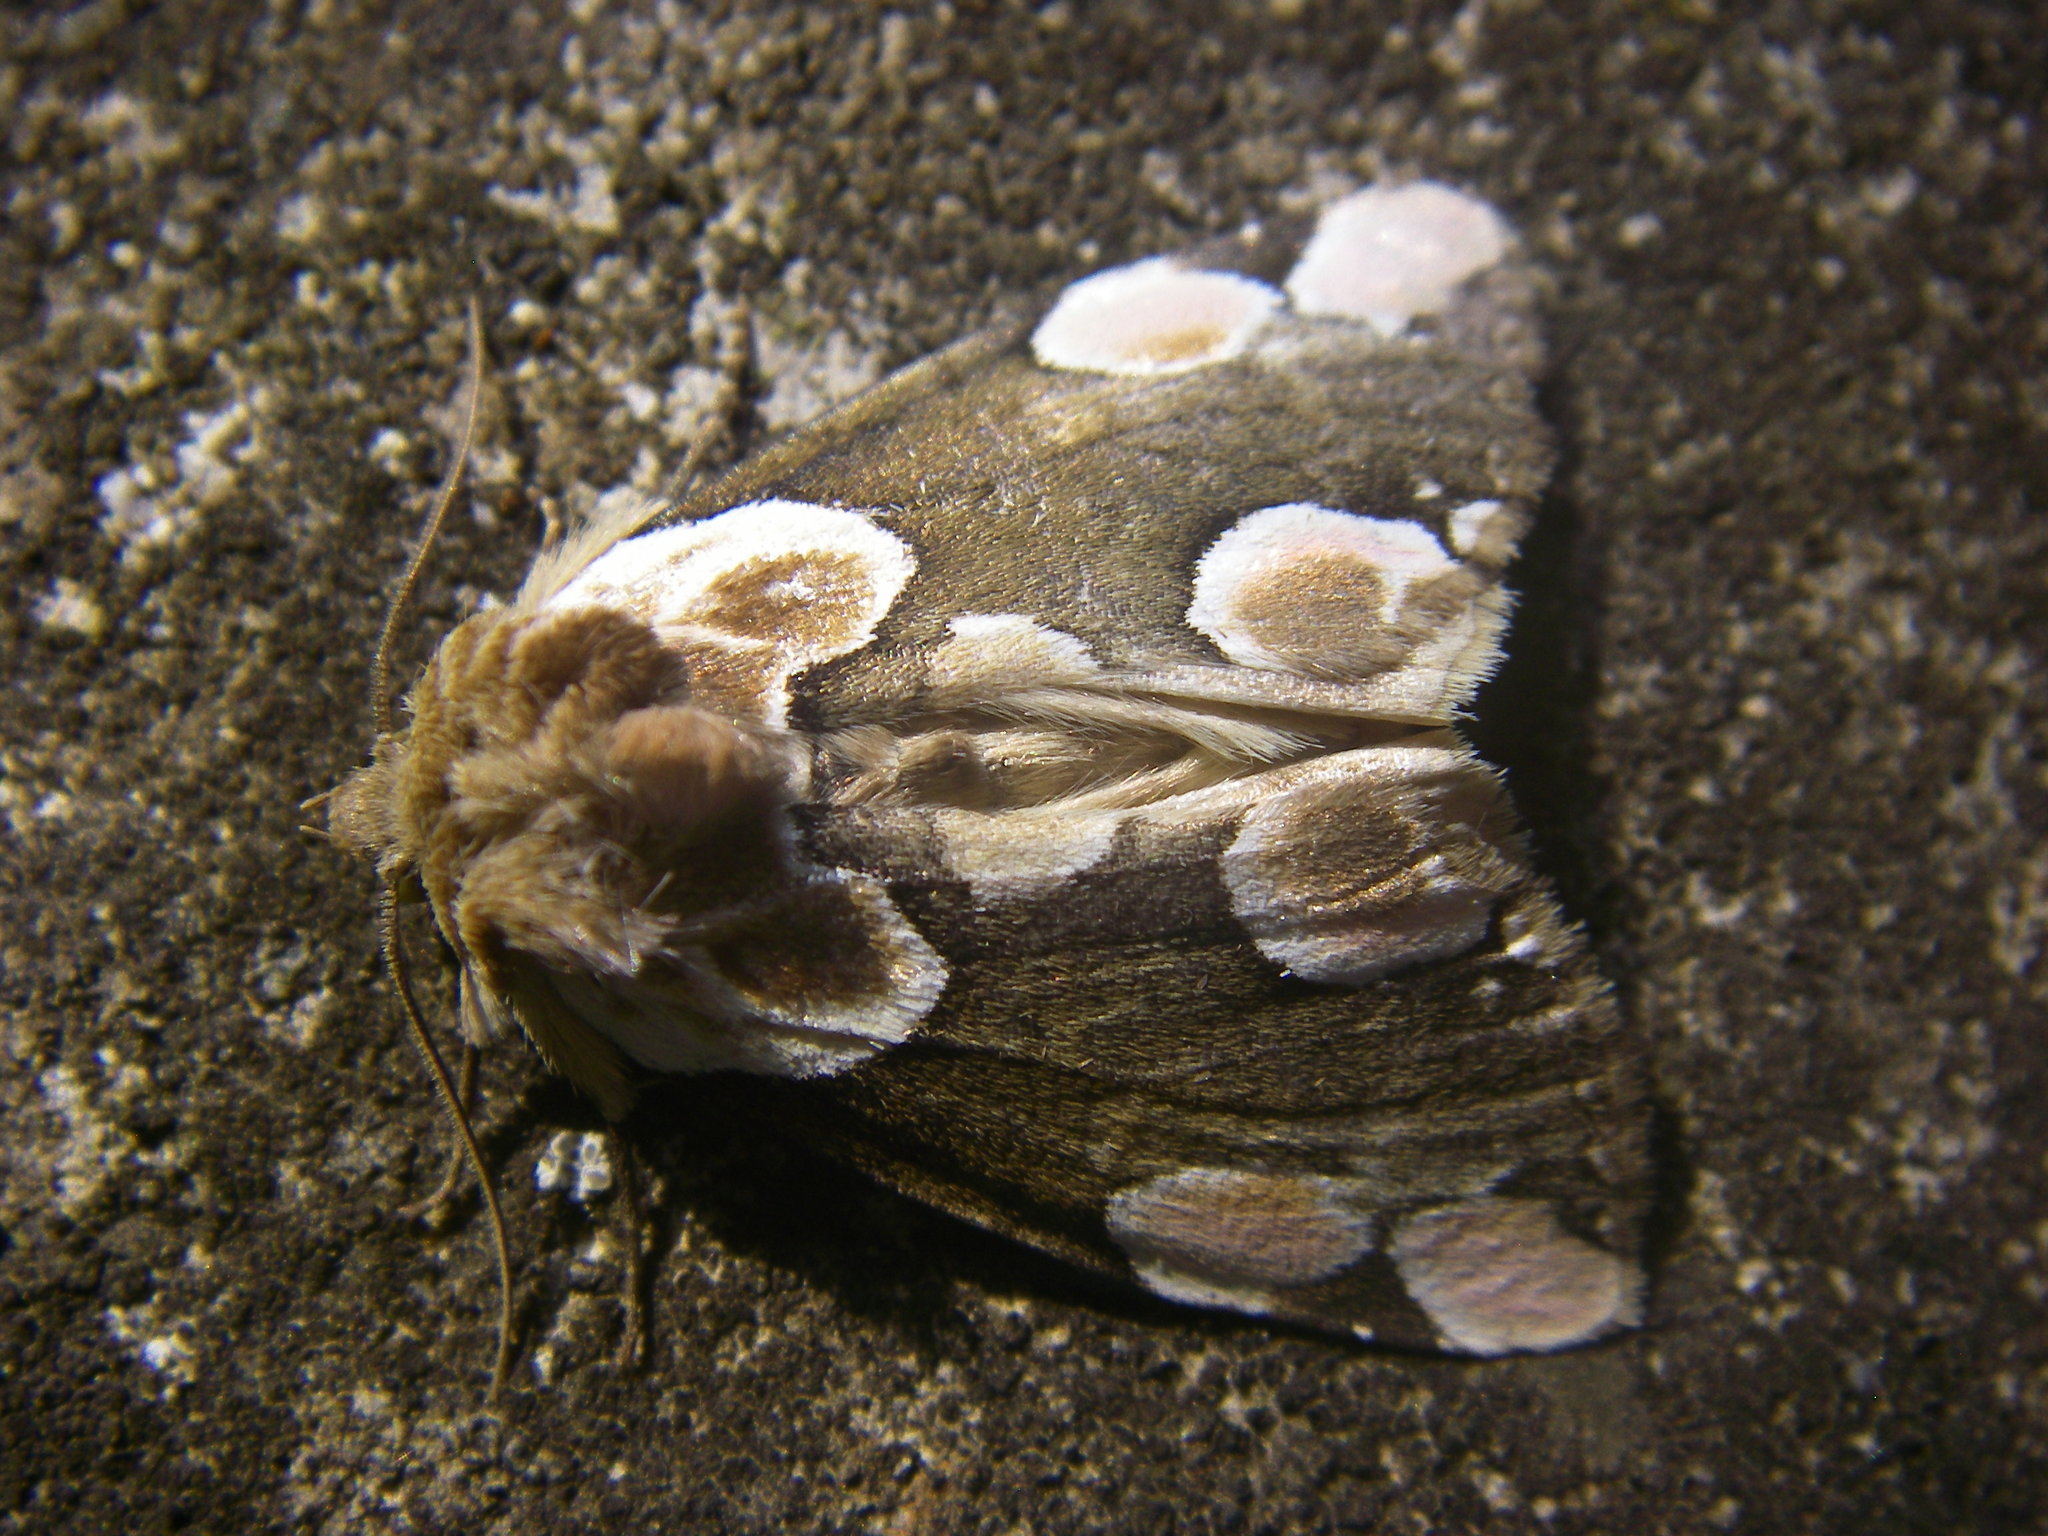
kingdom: Animalia
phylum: Arthropoda
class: Insecta
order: Lepidoptera
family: Drepanidae
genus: Thyatira
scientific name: Thyatira batis
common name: Peach blossom
